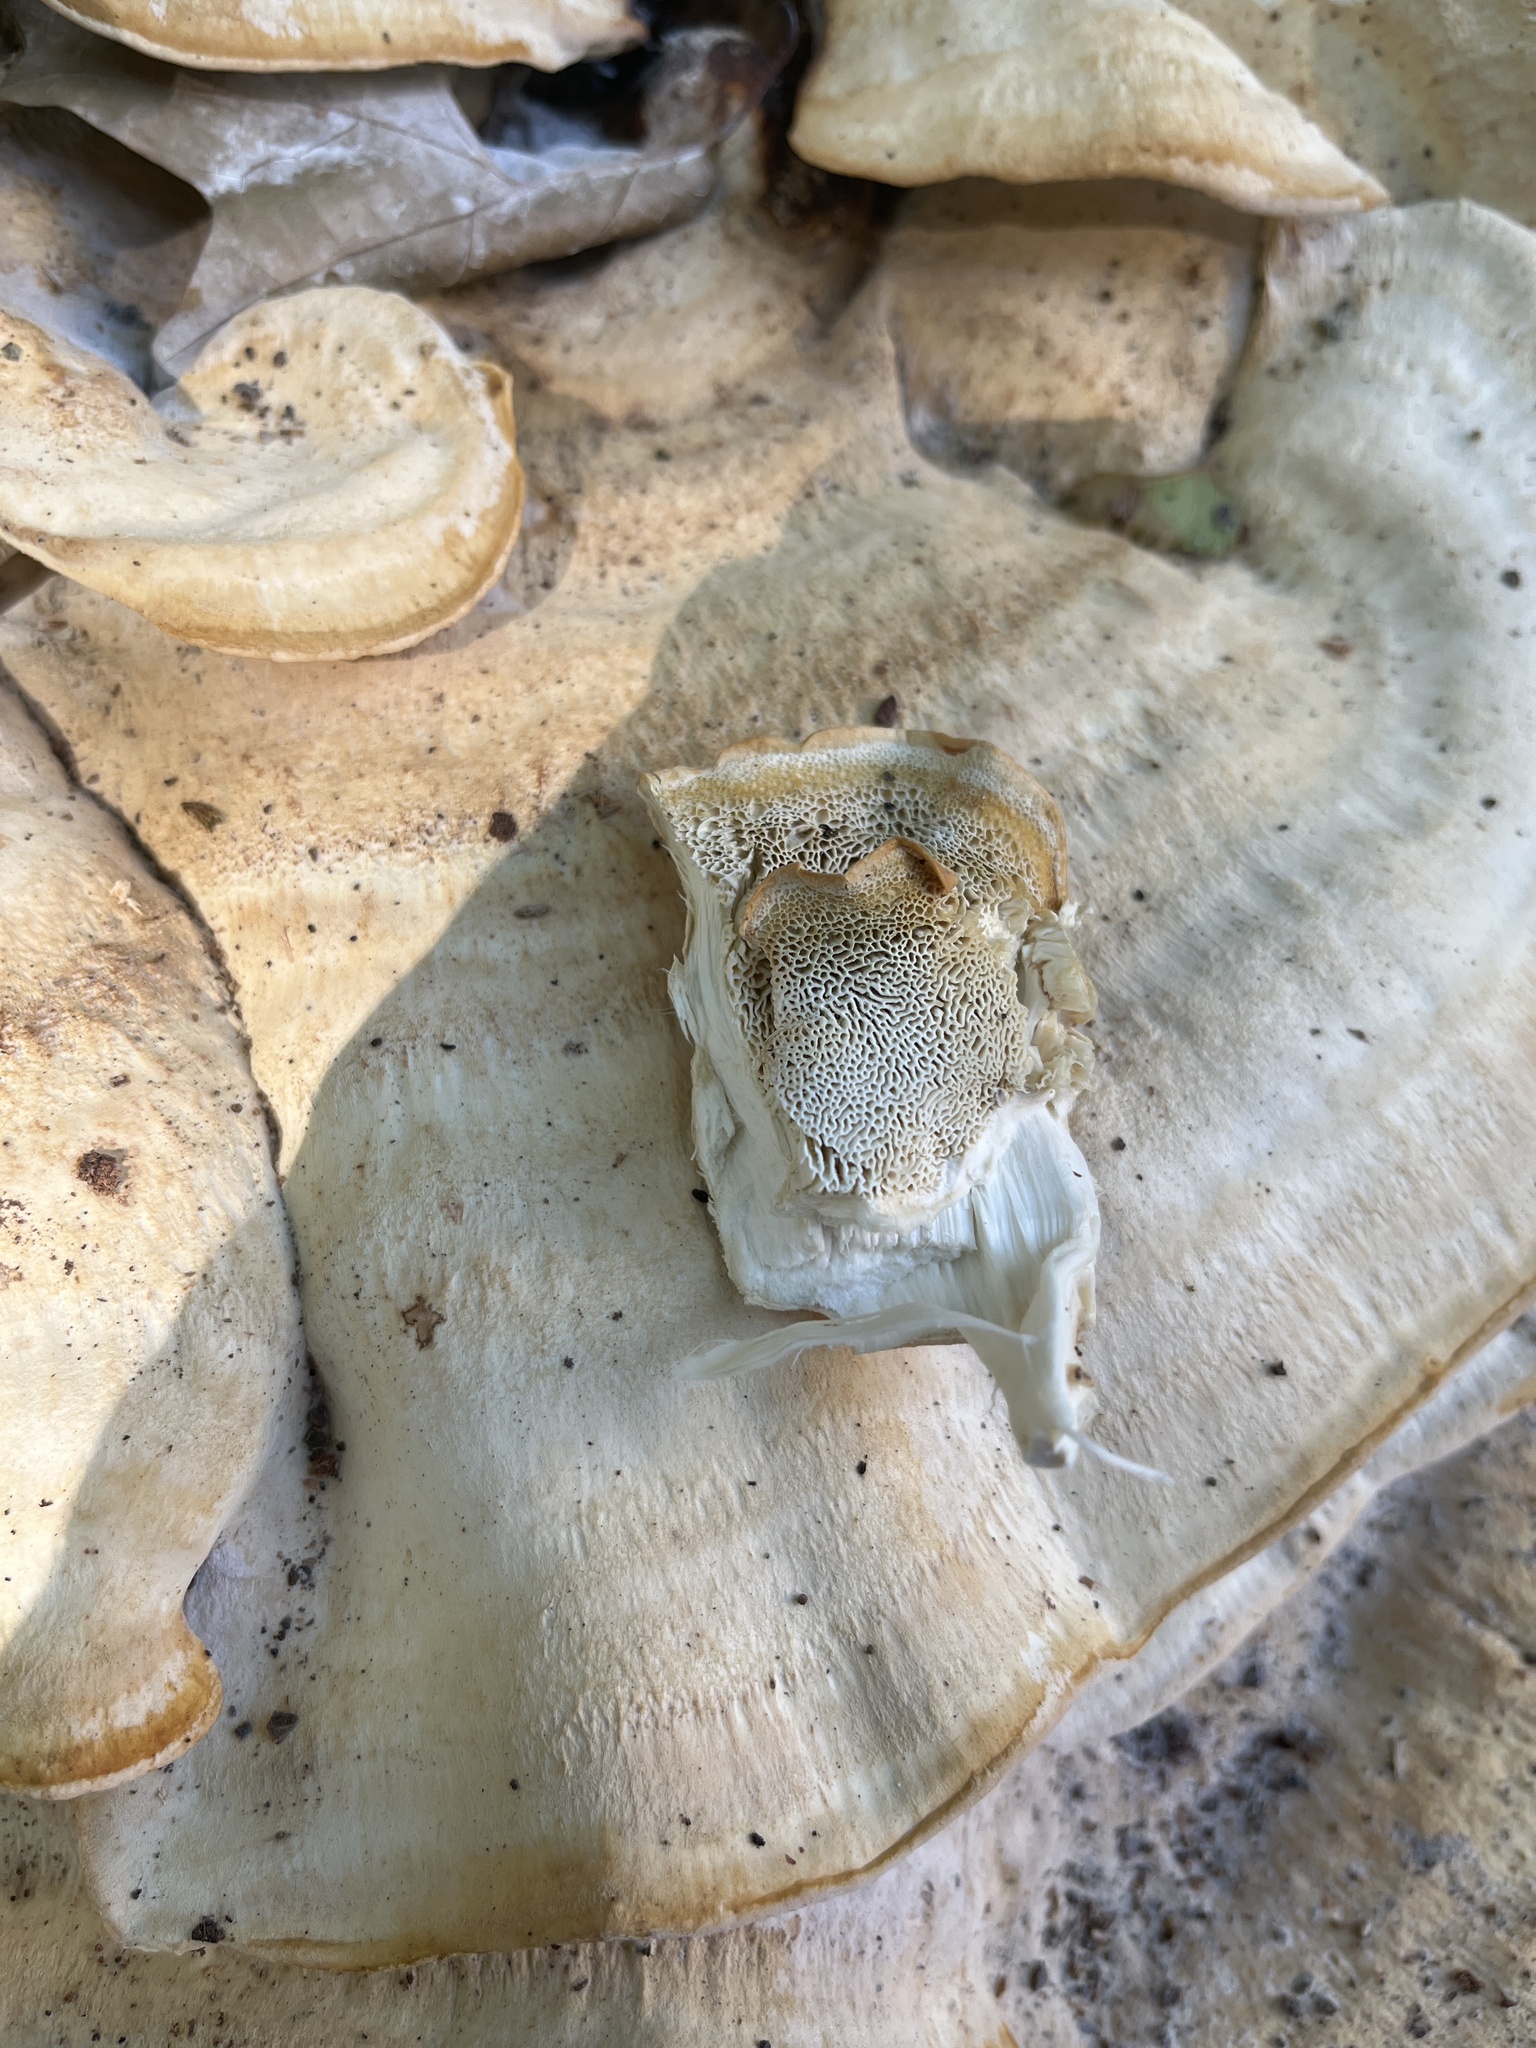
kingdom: Fungi
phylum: Basidiomycota
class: Agaricomycetes
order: Russulales
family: Bondarzewiaceae
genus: Bondarzewia
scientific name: Bondarzewia berkeleyi
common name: Berkeley's polypore
